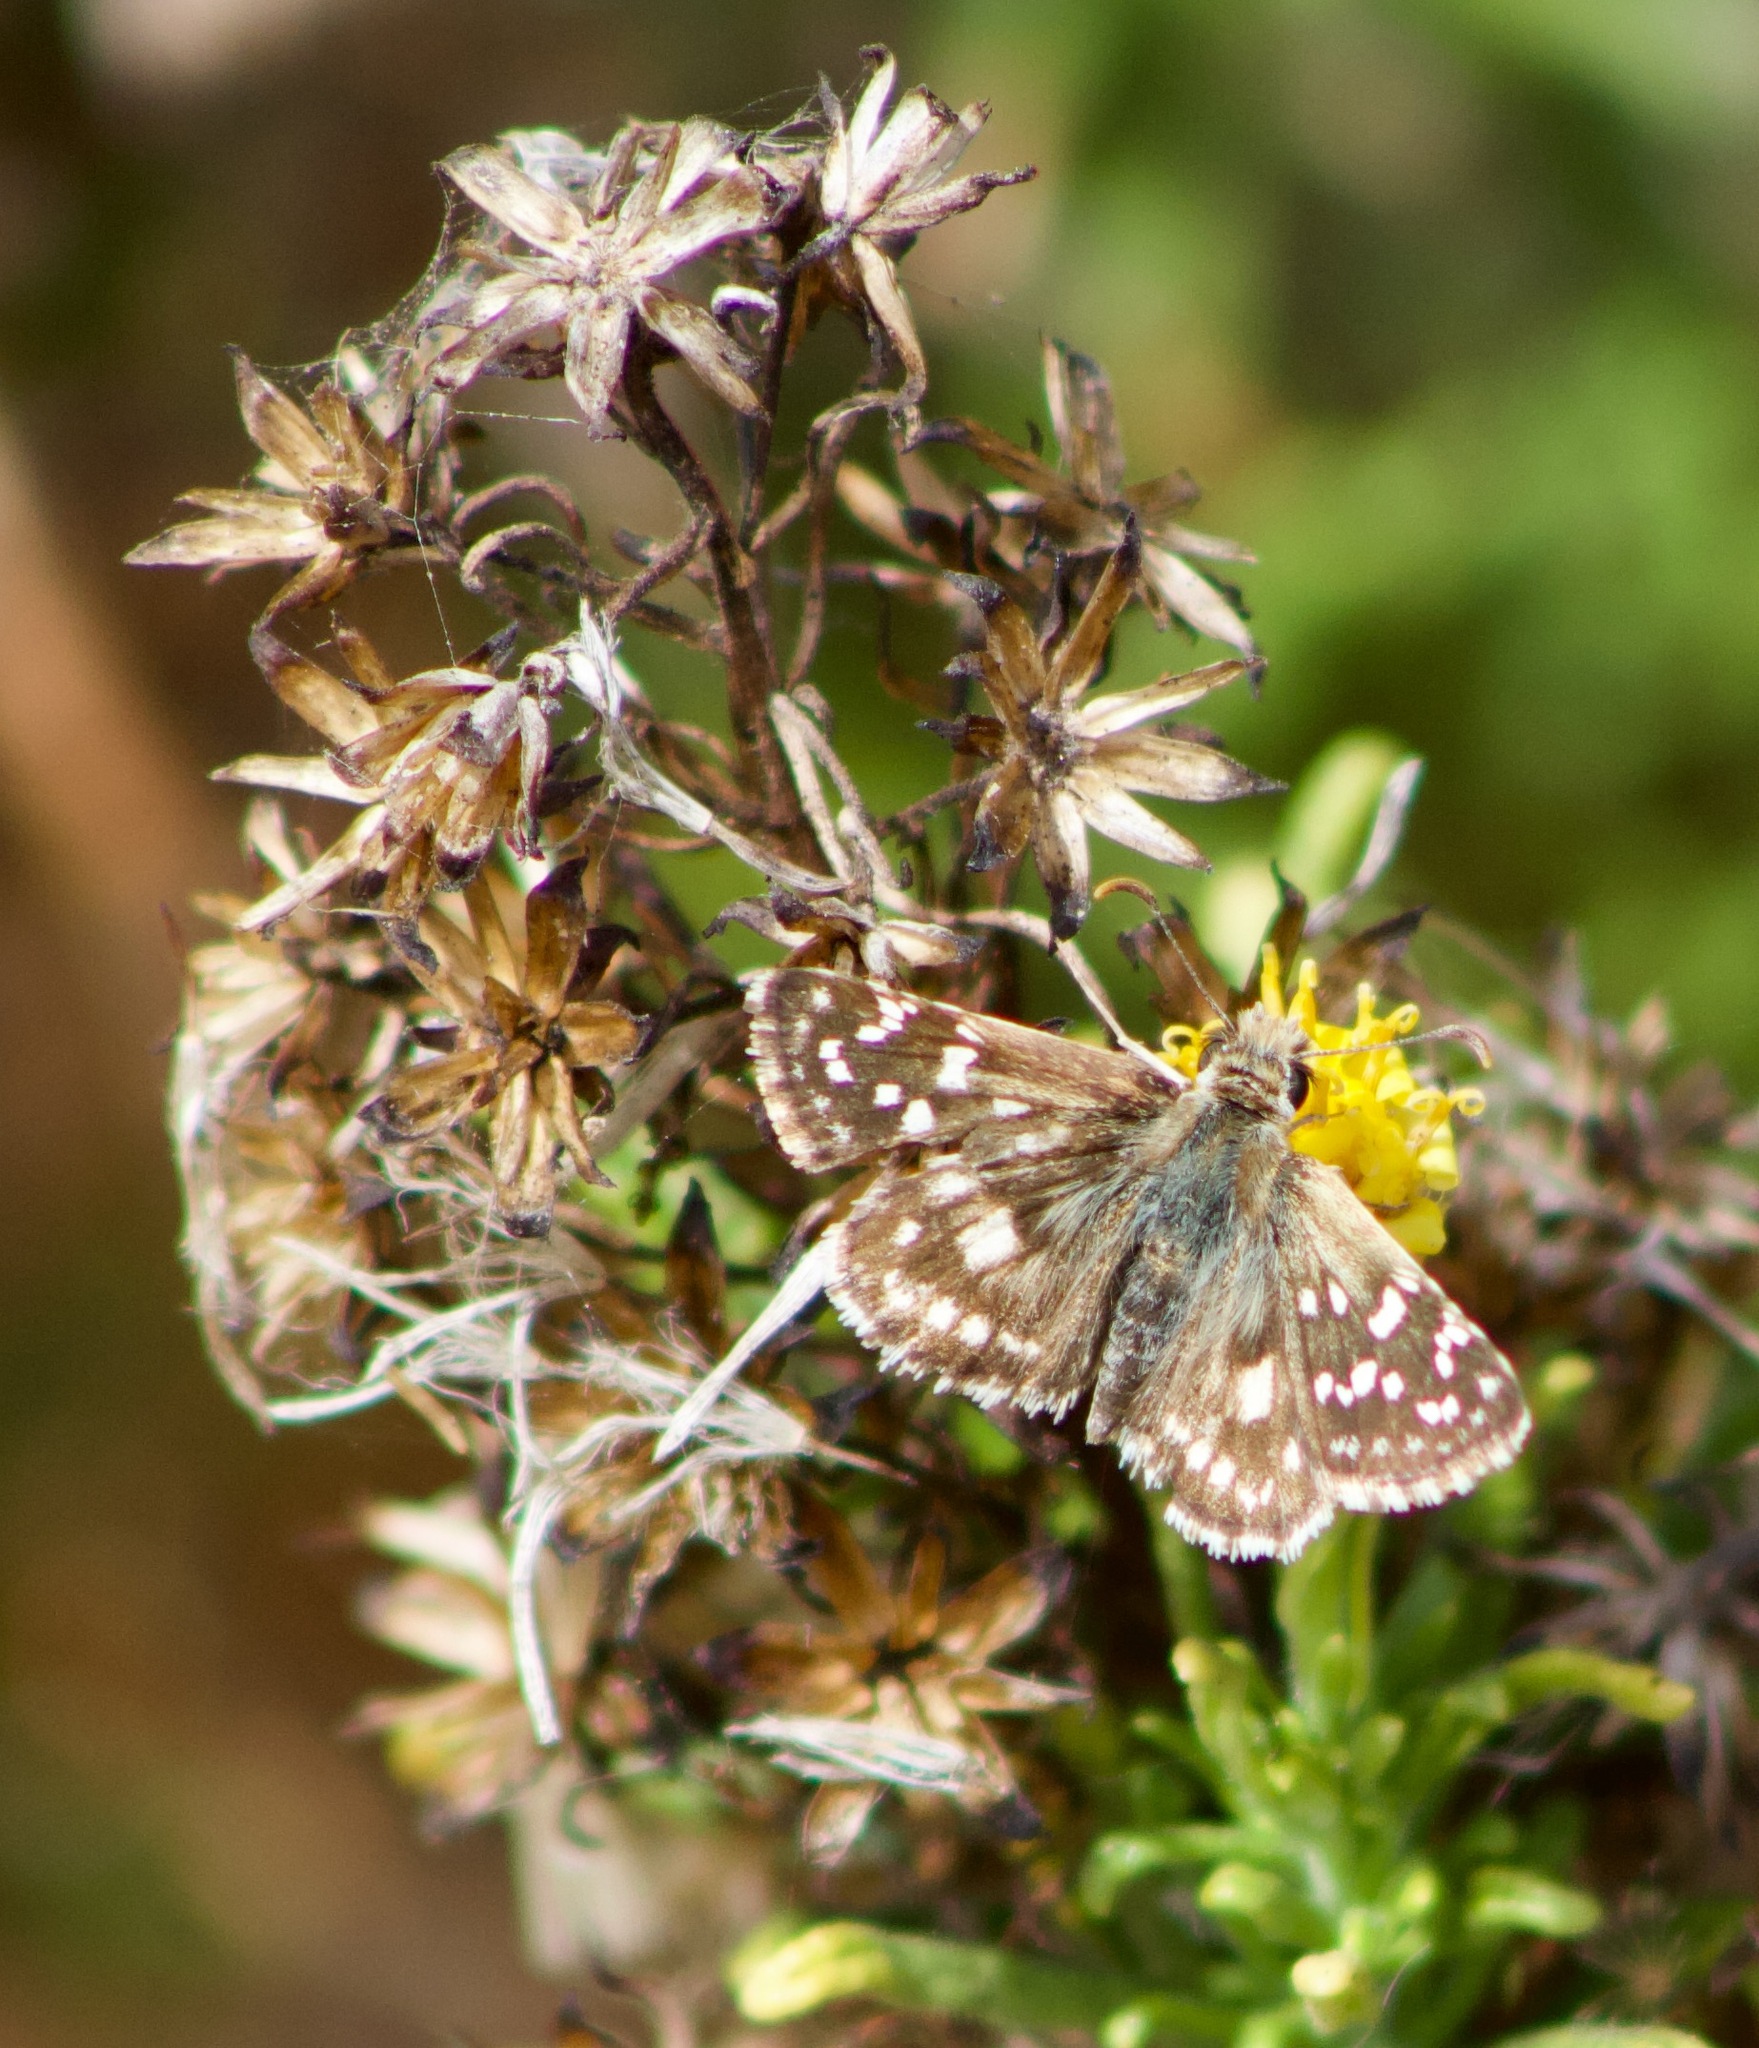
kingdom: Animalia
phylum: Arthropoda
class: Insecta
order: Lepidoptera
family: Hesperiidae
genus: Chirgus
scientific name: Chirgus fides
